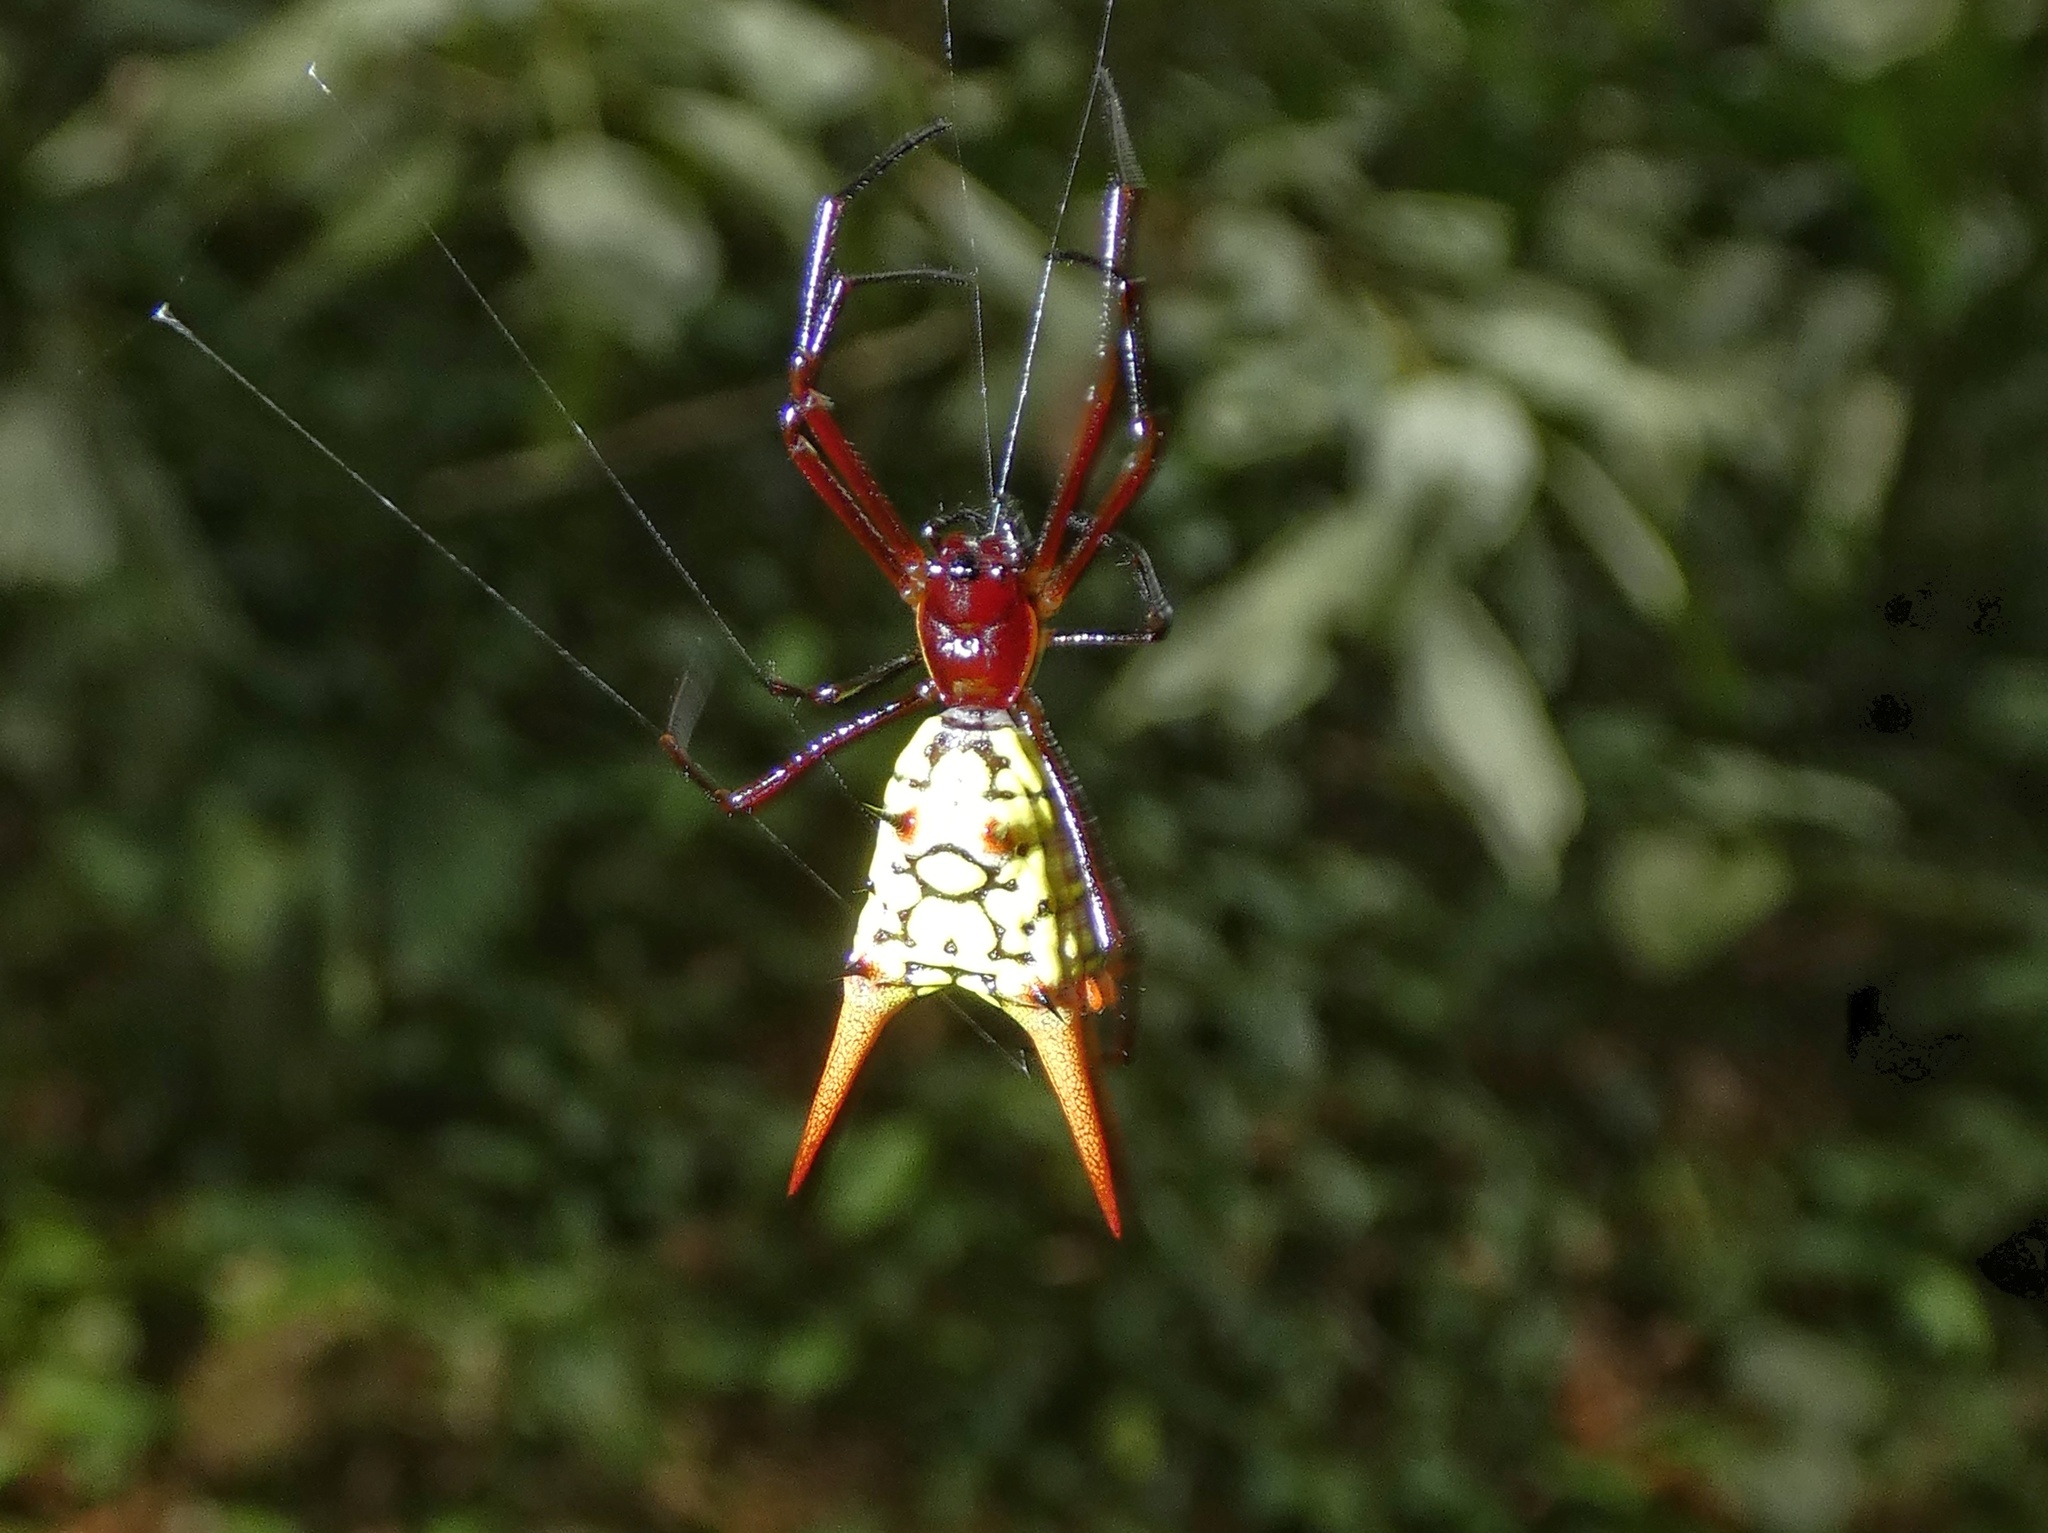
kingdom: Animalia
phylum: Arthropoda
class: Arachnida
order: Araneae
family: Araneidae
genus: Micrathena
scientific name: Micrathena donaldi
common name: Orb weavers
